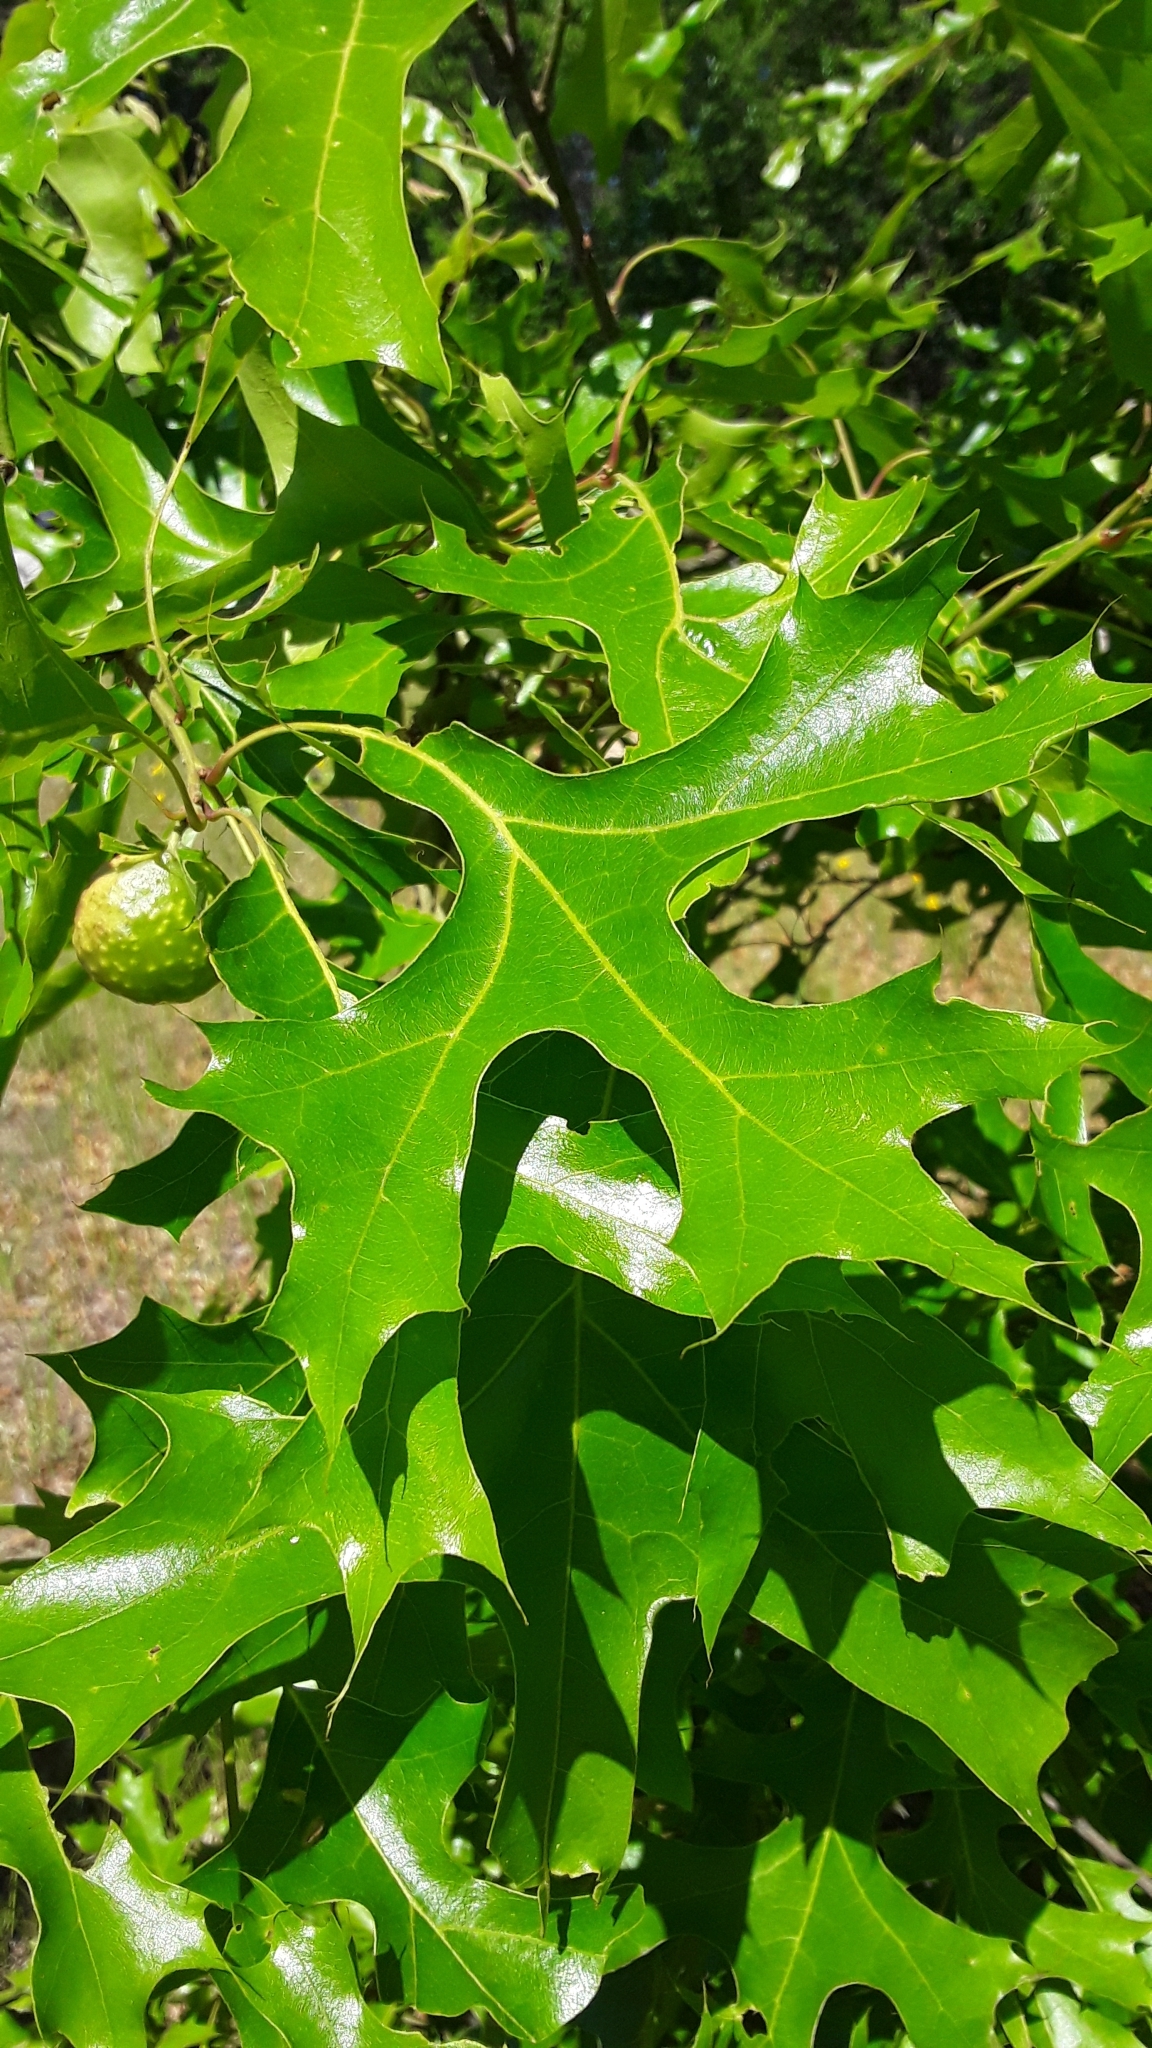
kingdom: Plantae
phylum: Tracheophyta
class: Magnoliopsida
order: Fagales
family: Fagaceae
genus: Quercus
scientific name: Quercus ellipsoidalis
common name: Hill's oak
